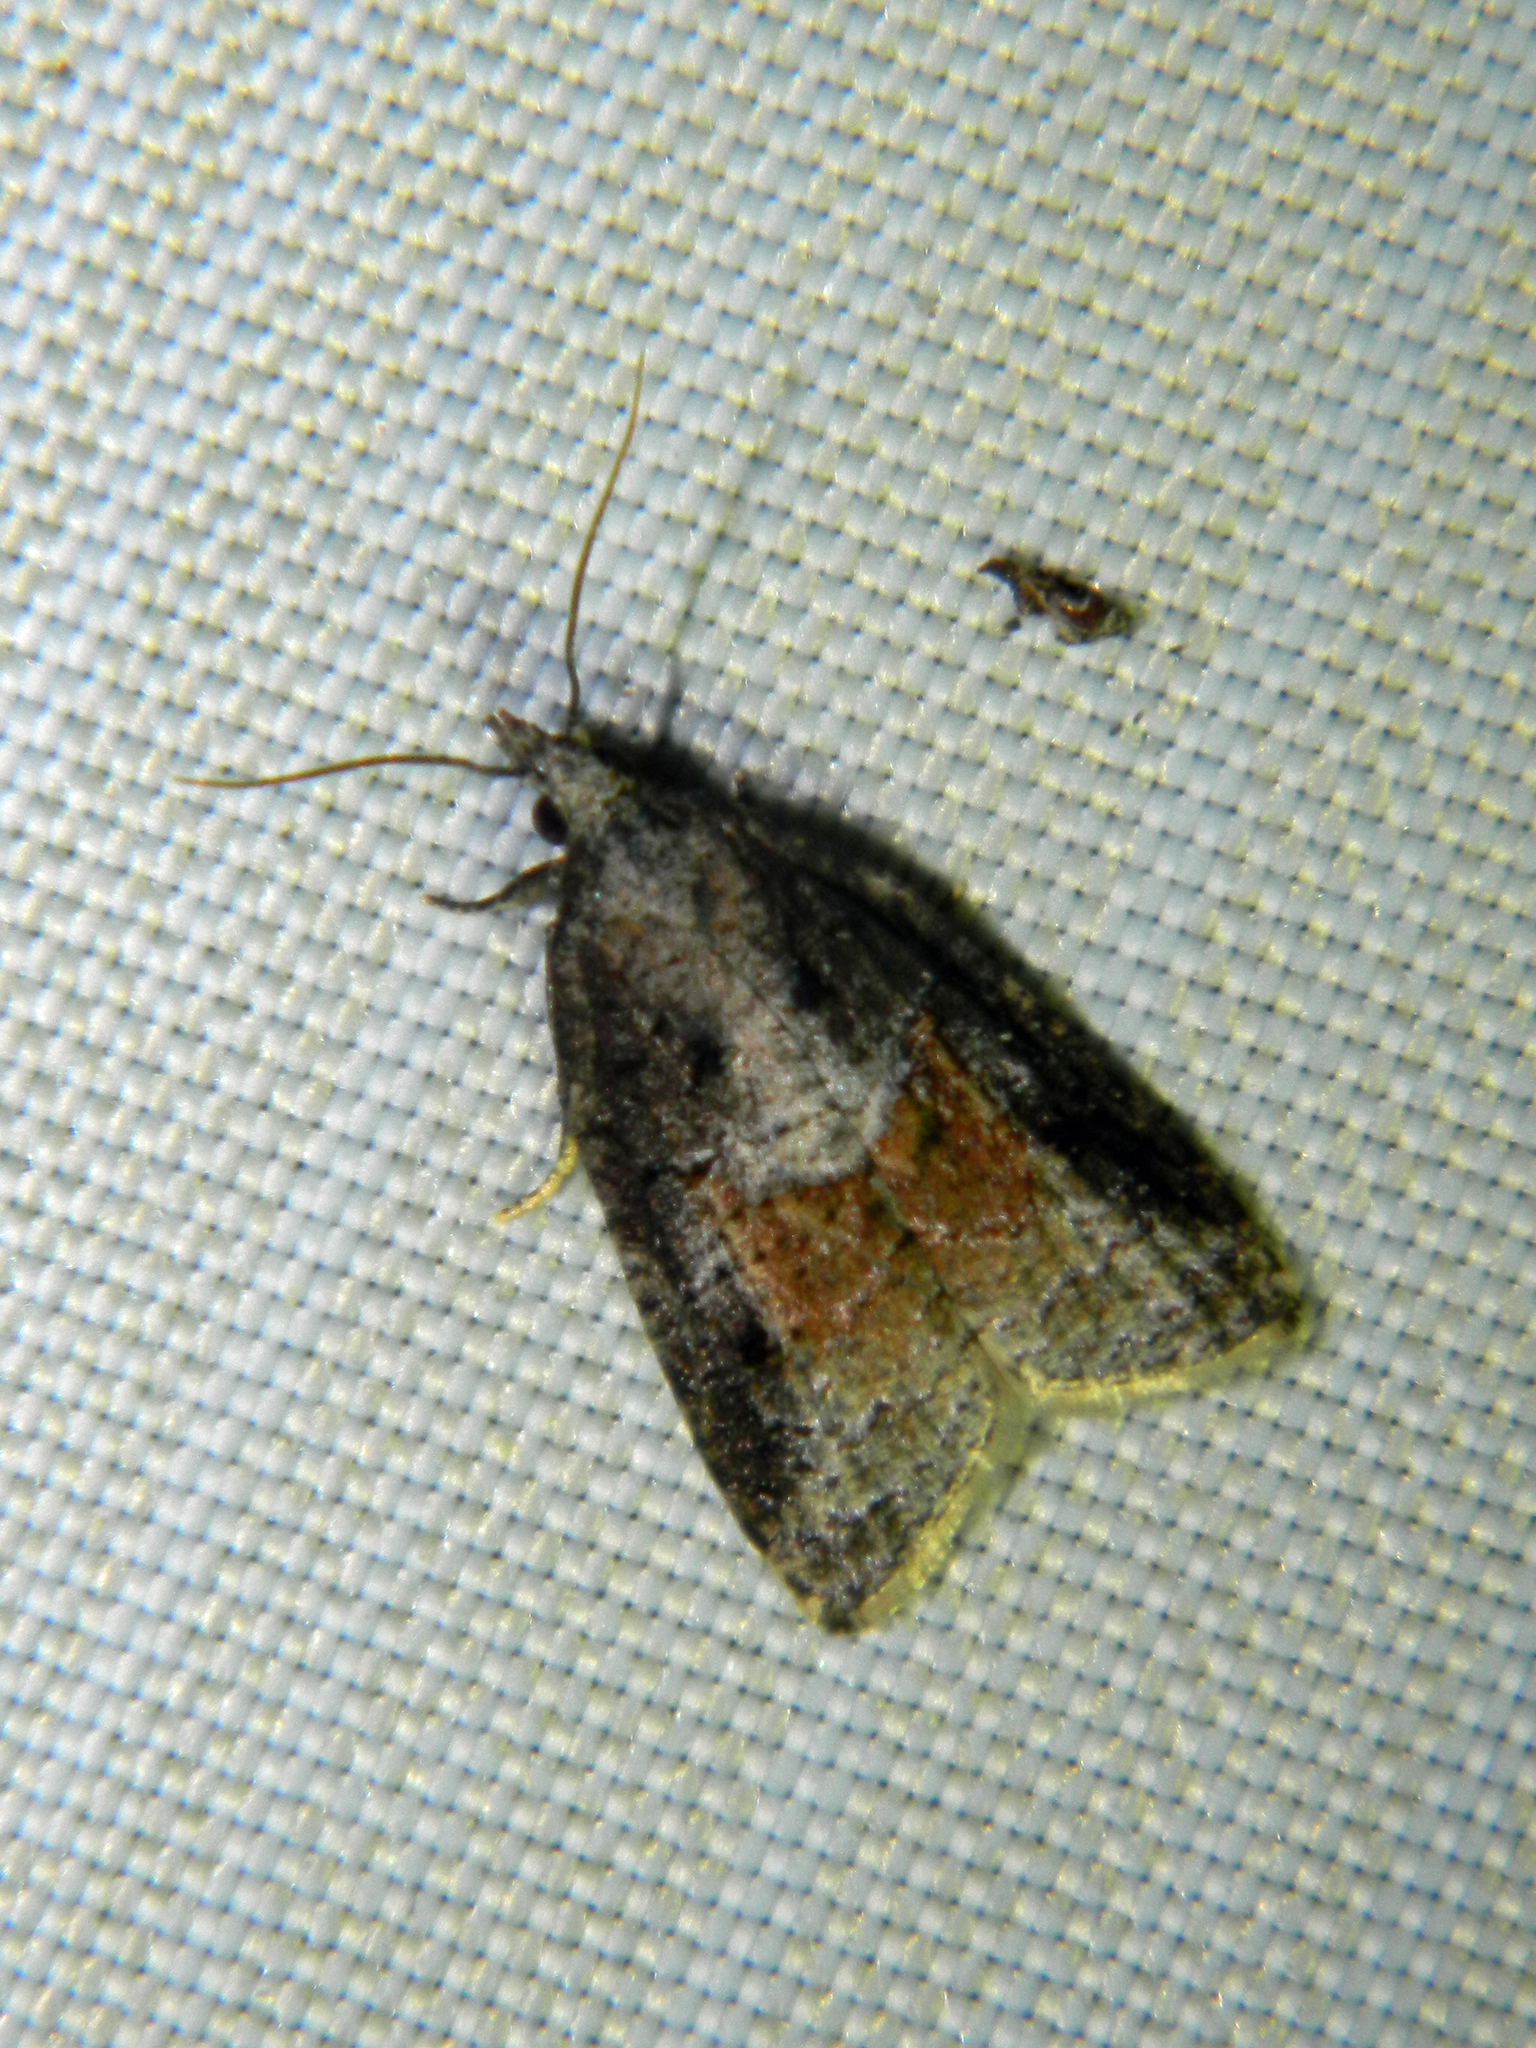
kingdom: Animalia
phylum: Arthropoda
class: Insecta
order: Lepidoptera
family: Tortricidae
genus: Platynota
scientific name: Platynota idaeusalis
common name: Tufted apple bud moth
